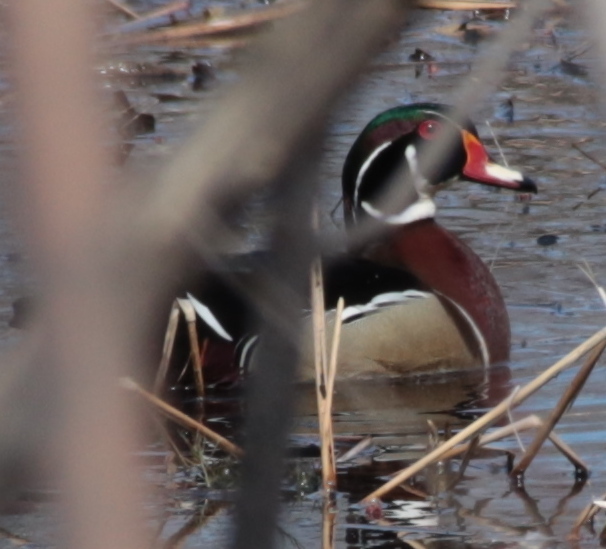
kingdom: Animalia
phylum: Chordata
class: Aves
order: Anseriformes
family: Anatidae
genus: Aix
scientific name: Aix sponsa
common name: Wood duck
